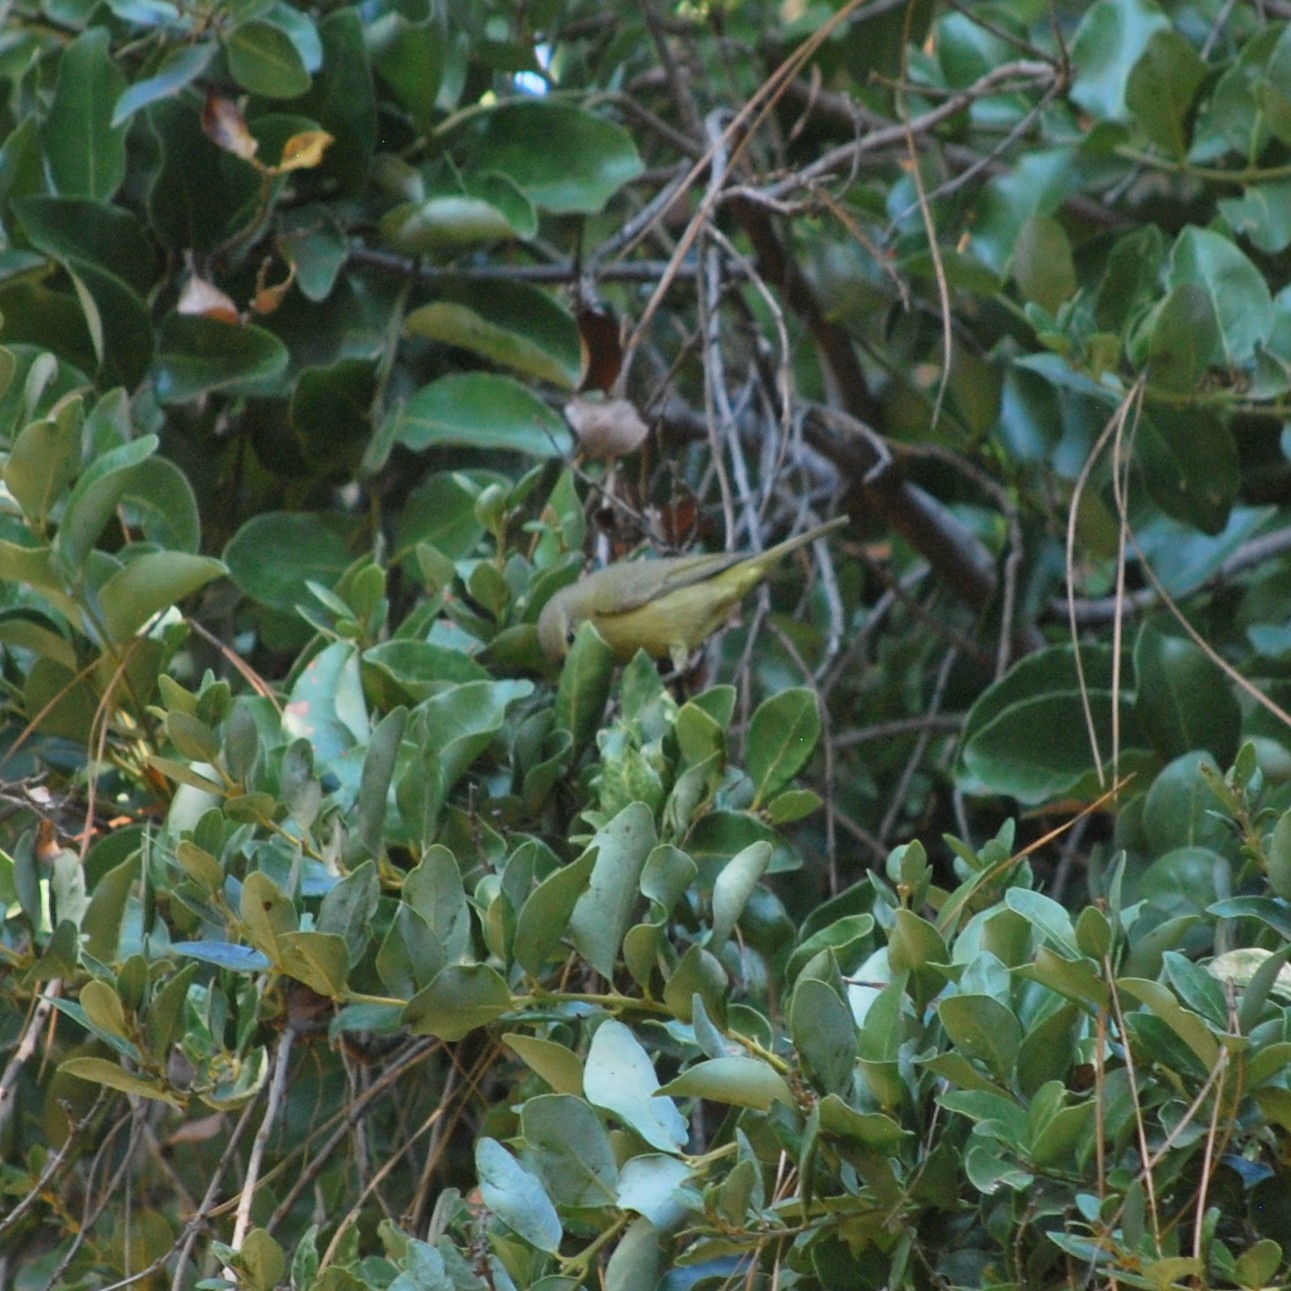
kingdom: Animalia
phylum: Chordata
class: Aves
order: Passeriformes
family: Parulidae
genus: Leiothlypis
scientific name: Leiothlypis celata
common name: Orange-crowned warbler
